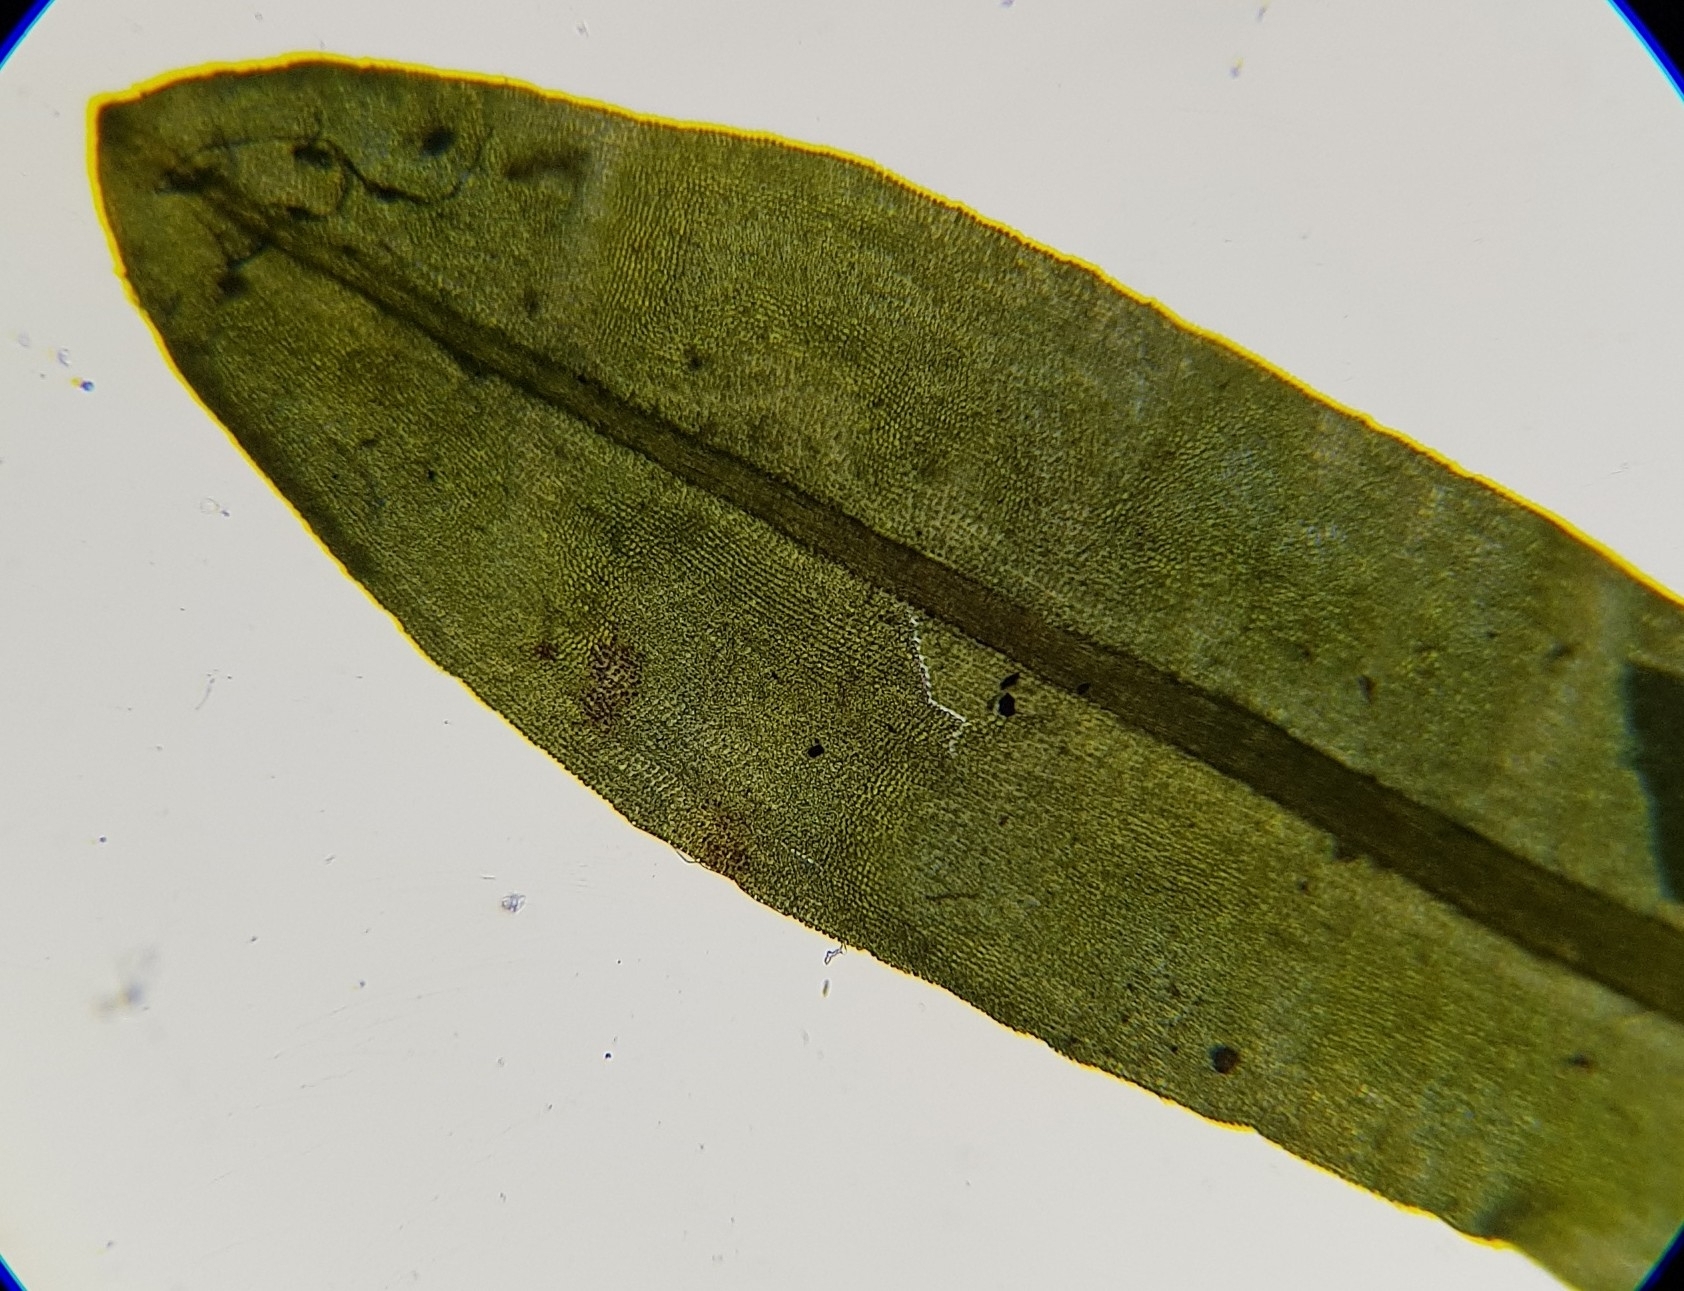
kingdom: Plantae
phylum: Bryophyta
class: Bryopsida
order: Encalyptales
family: Encalyptaceae
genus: Encalypta
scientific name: Encalypta streptocarpa
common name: Spiral extinguisher-moss
